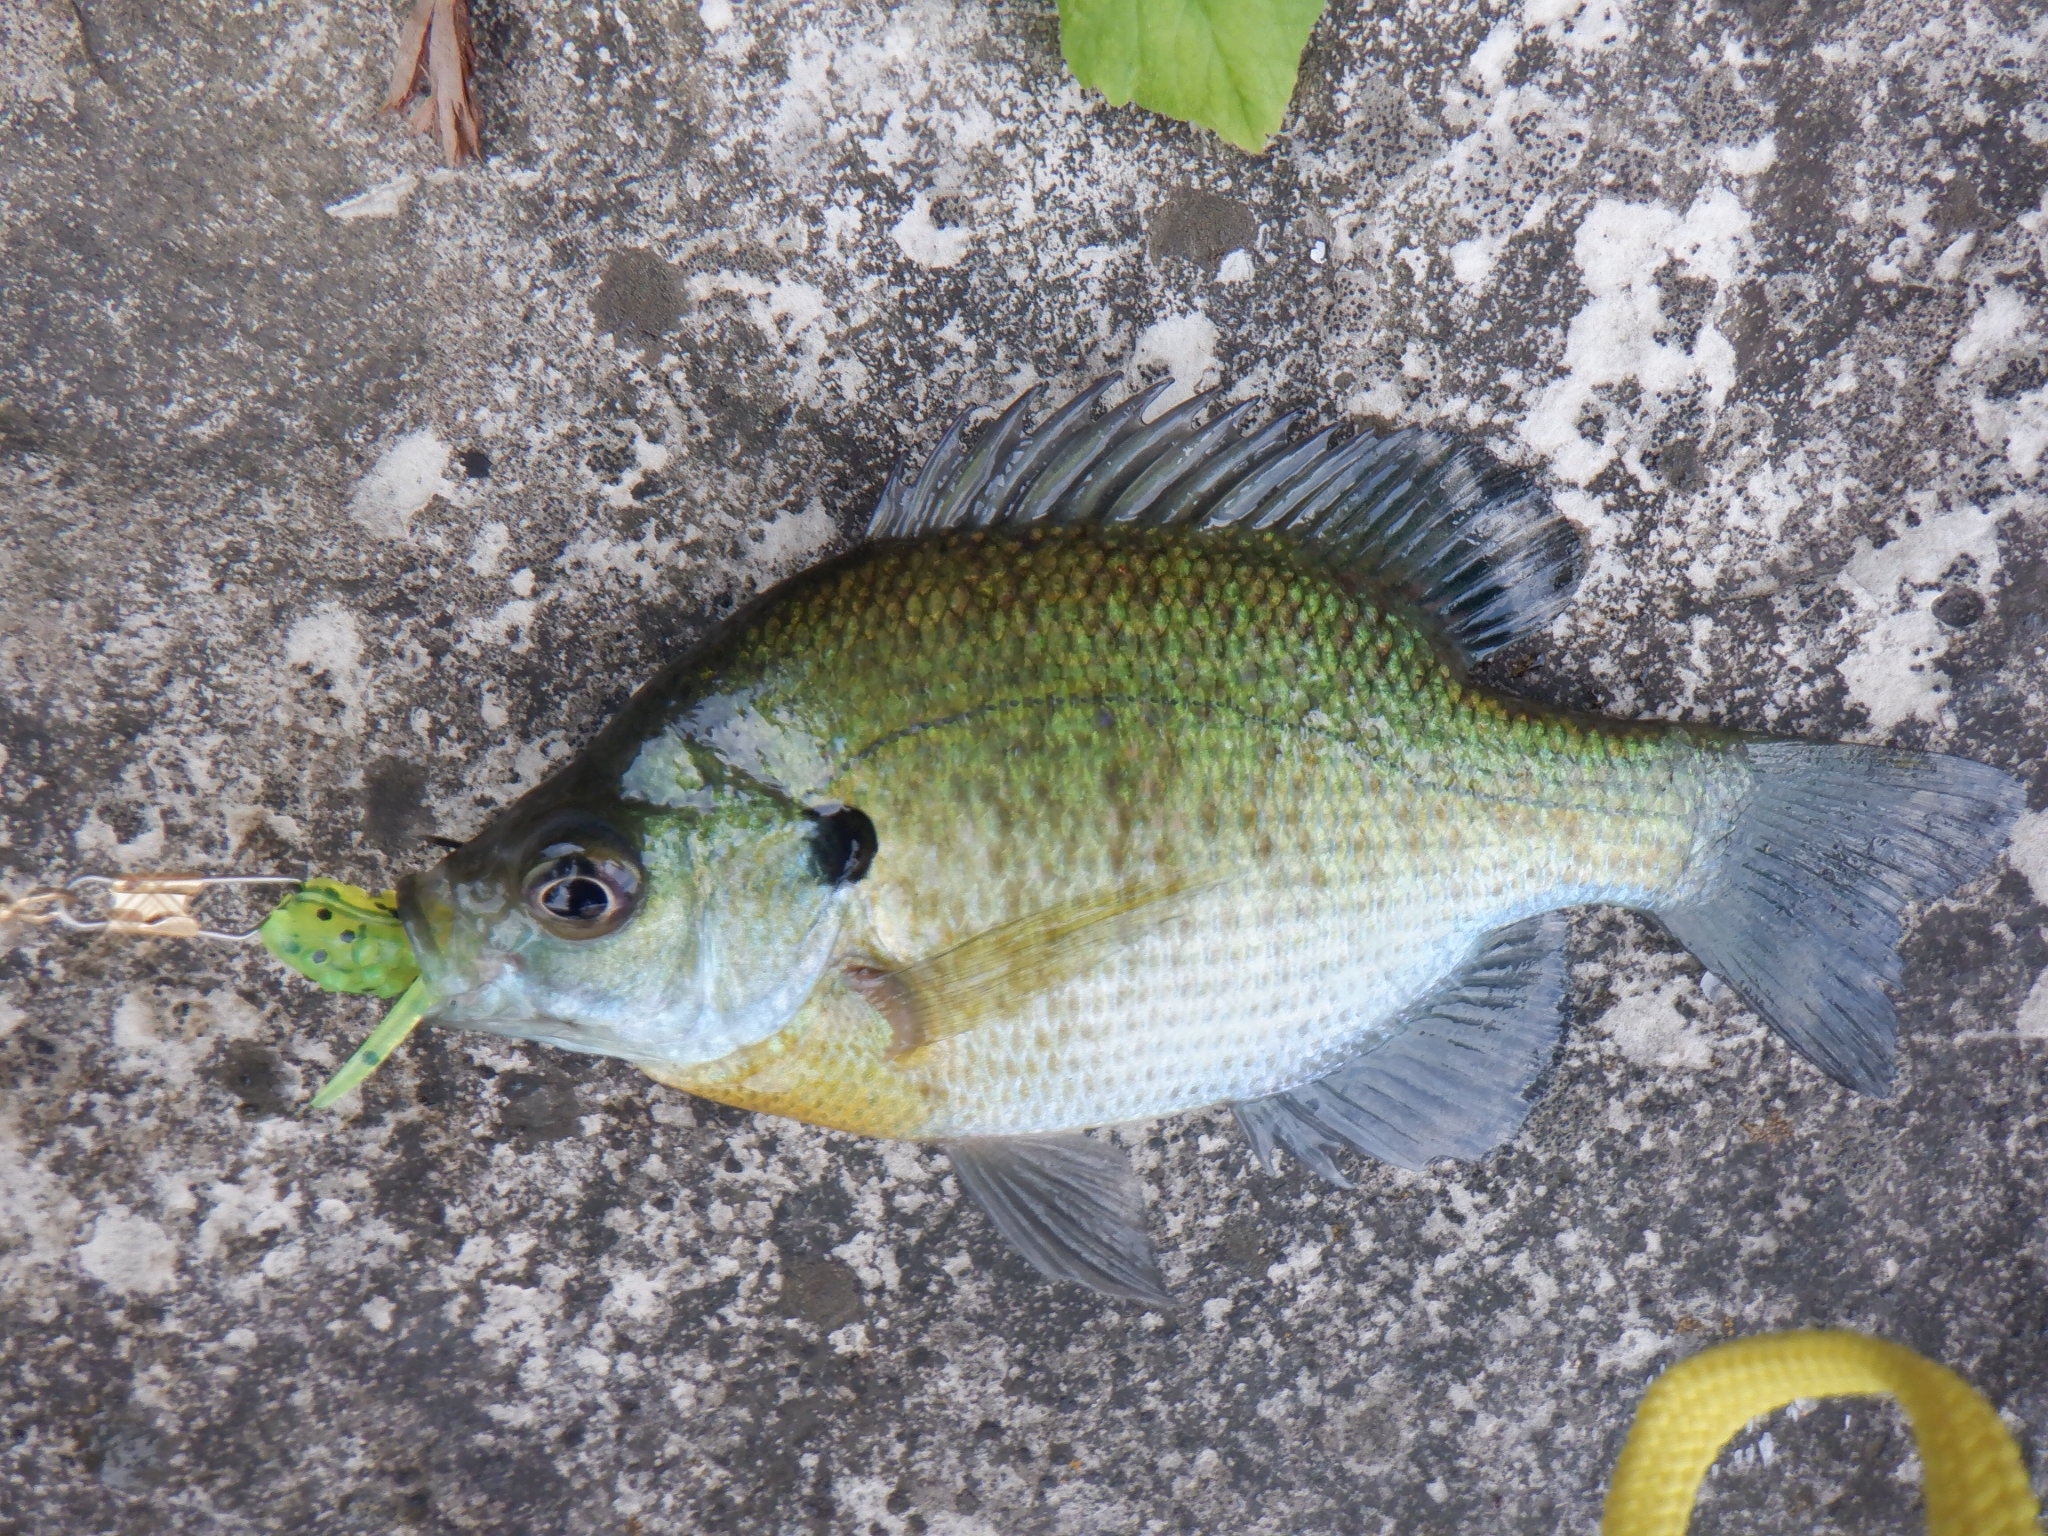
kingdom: Animalia
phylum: Chordata
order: Perciformes
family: Centrarchidae
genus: Lepomis
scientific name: Lepomis macrochirus
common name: Bluegill
